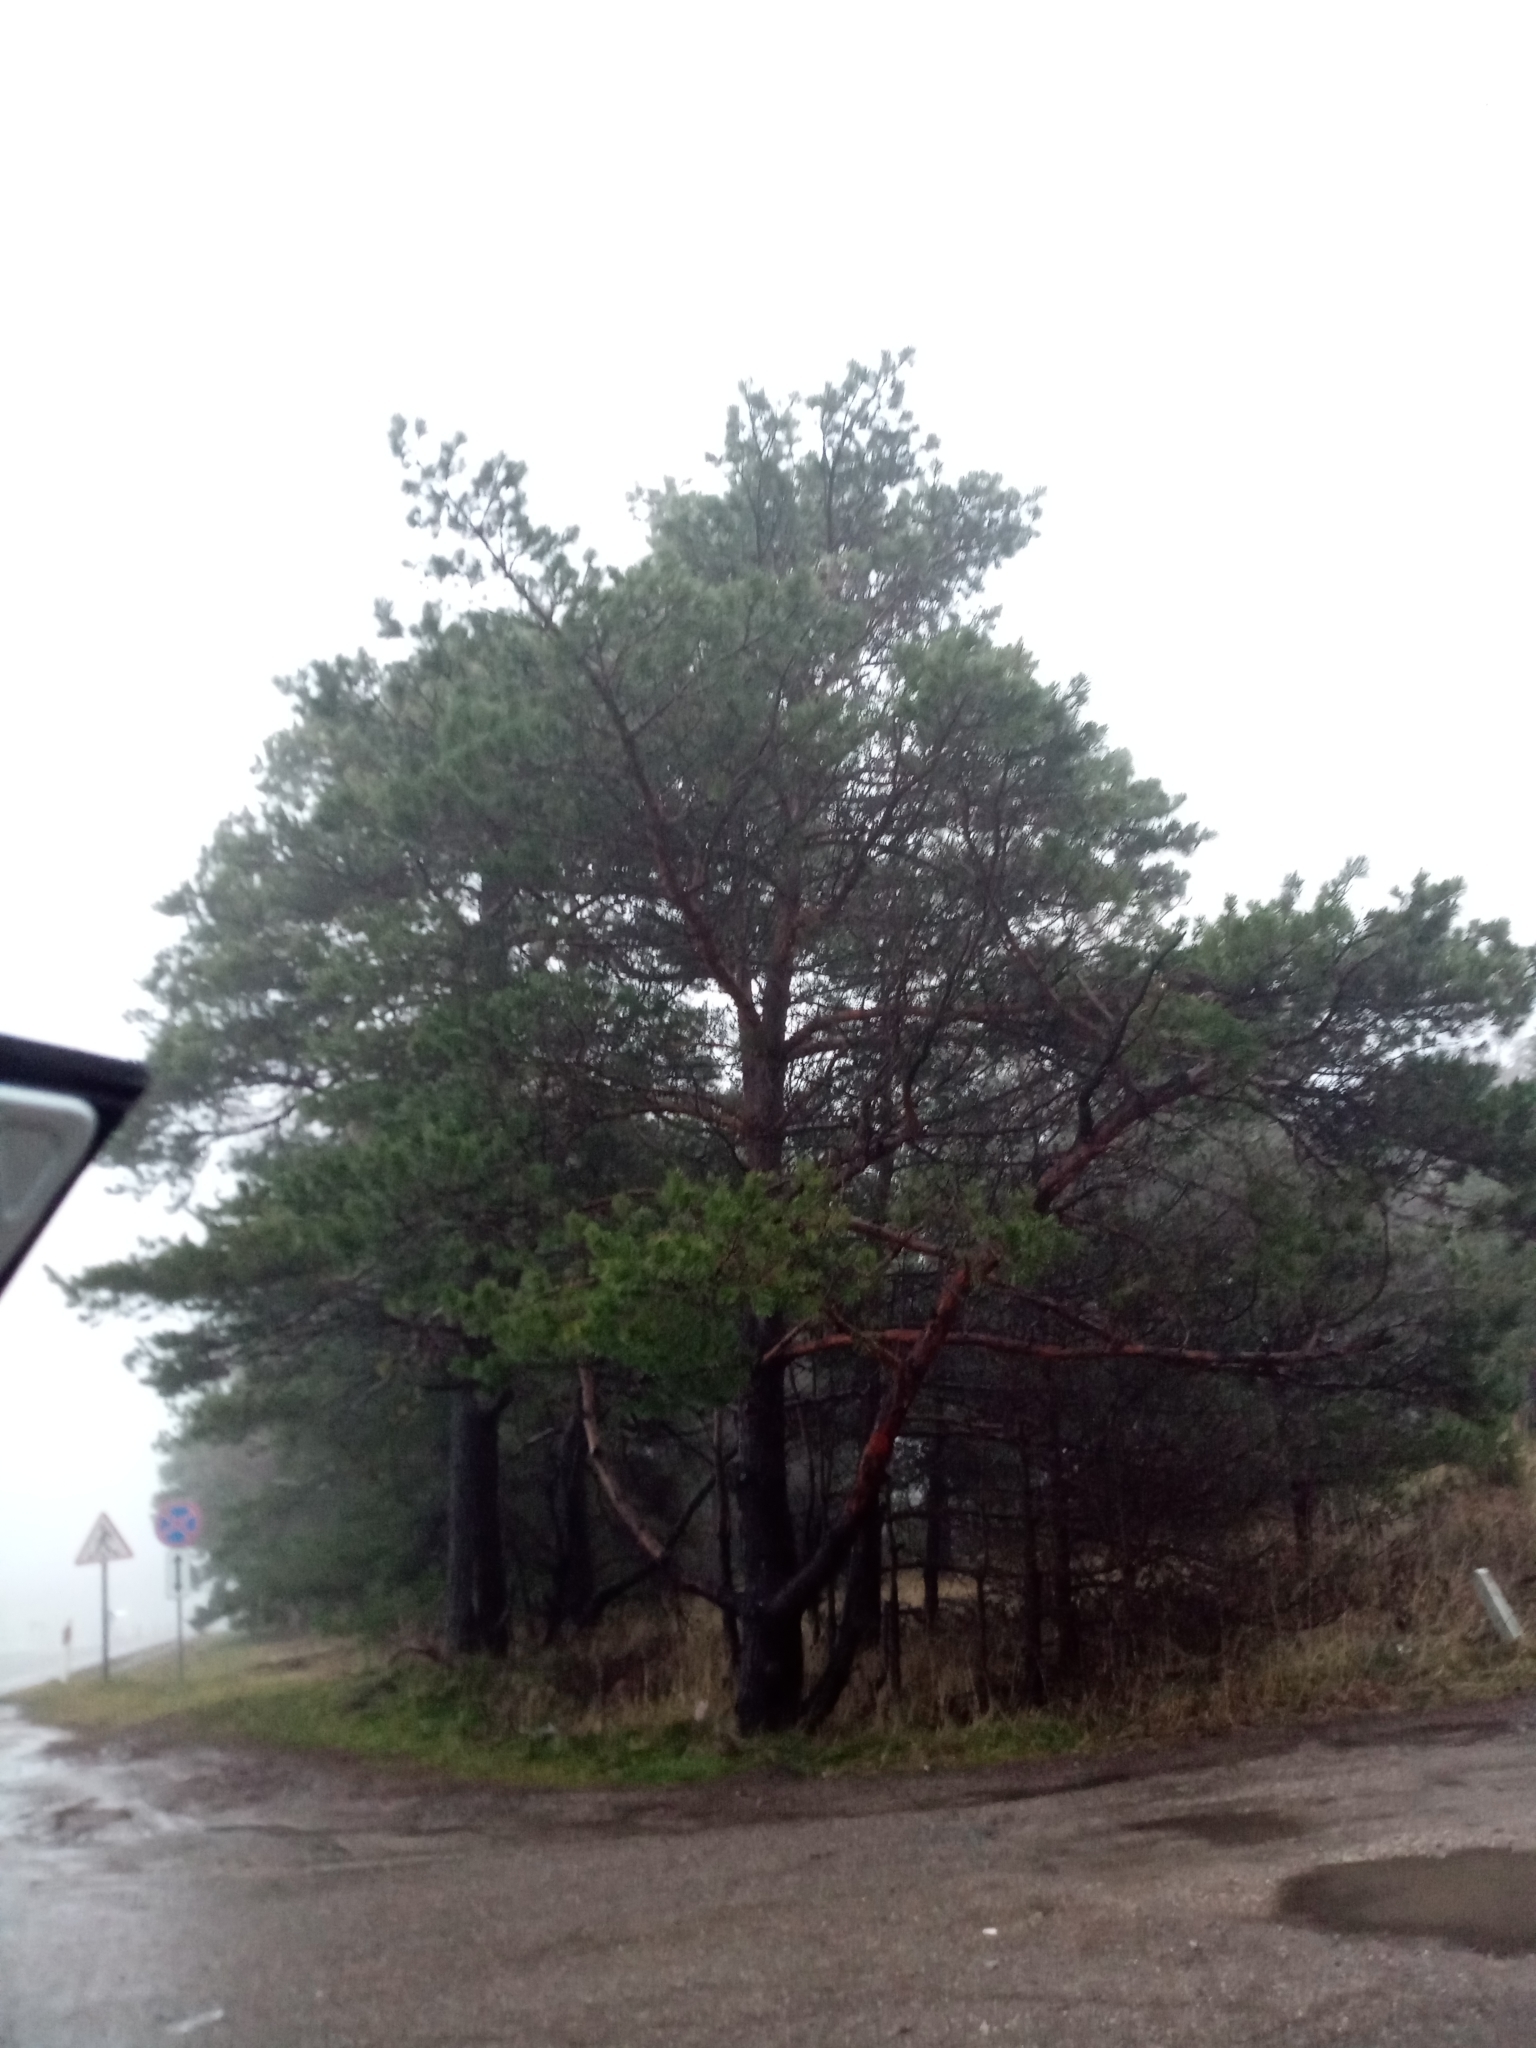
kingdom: Plantae
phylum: Tracheophyta
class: Pinopsida
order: Pinales
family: Pinaceae
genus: Pinus
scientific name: Pinus sylvestris
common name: Scots pine
